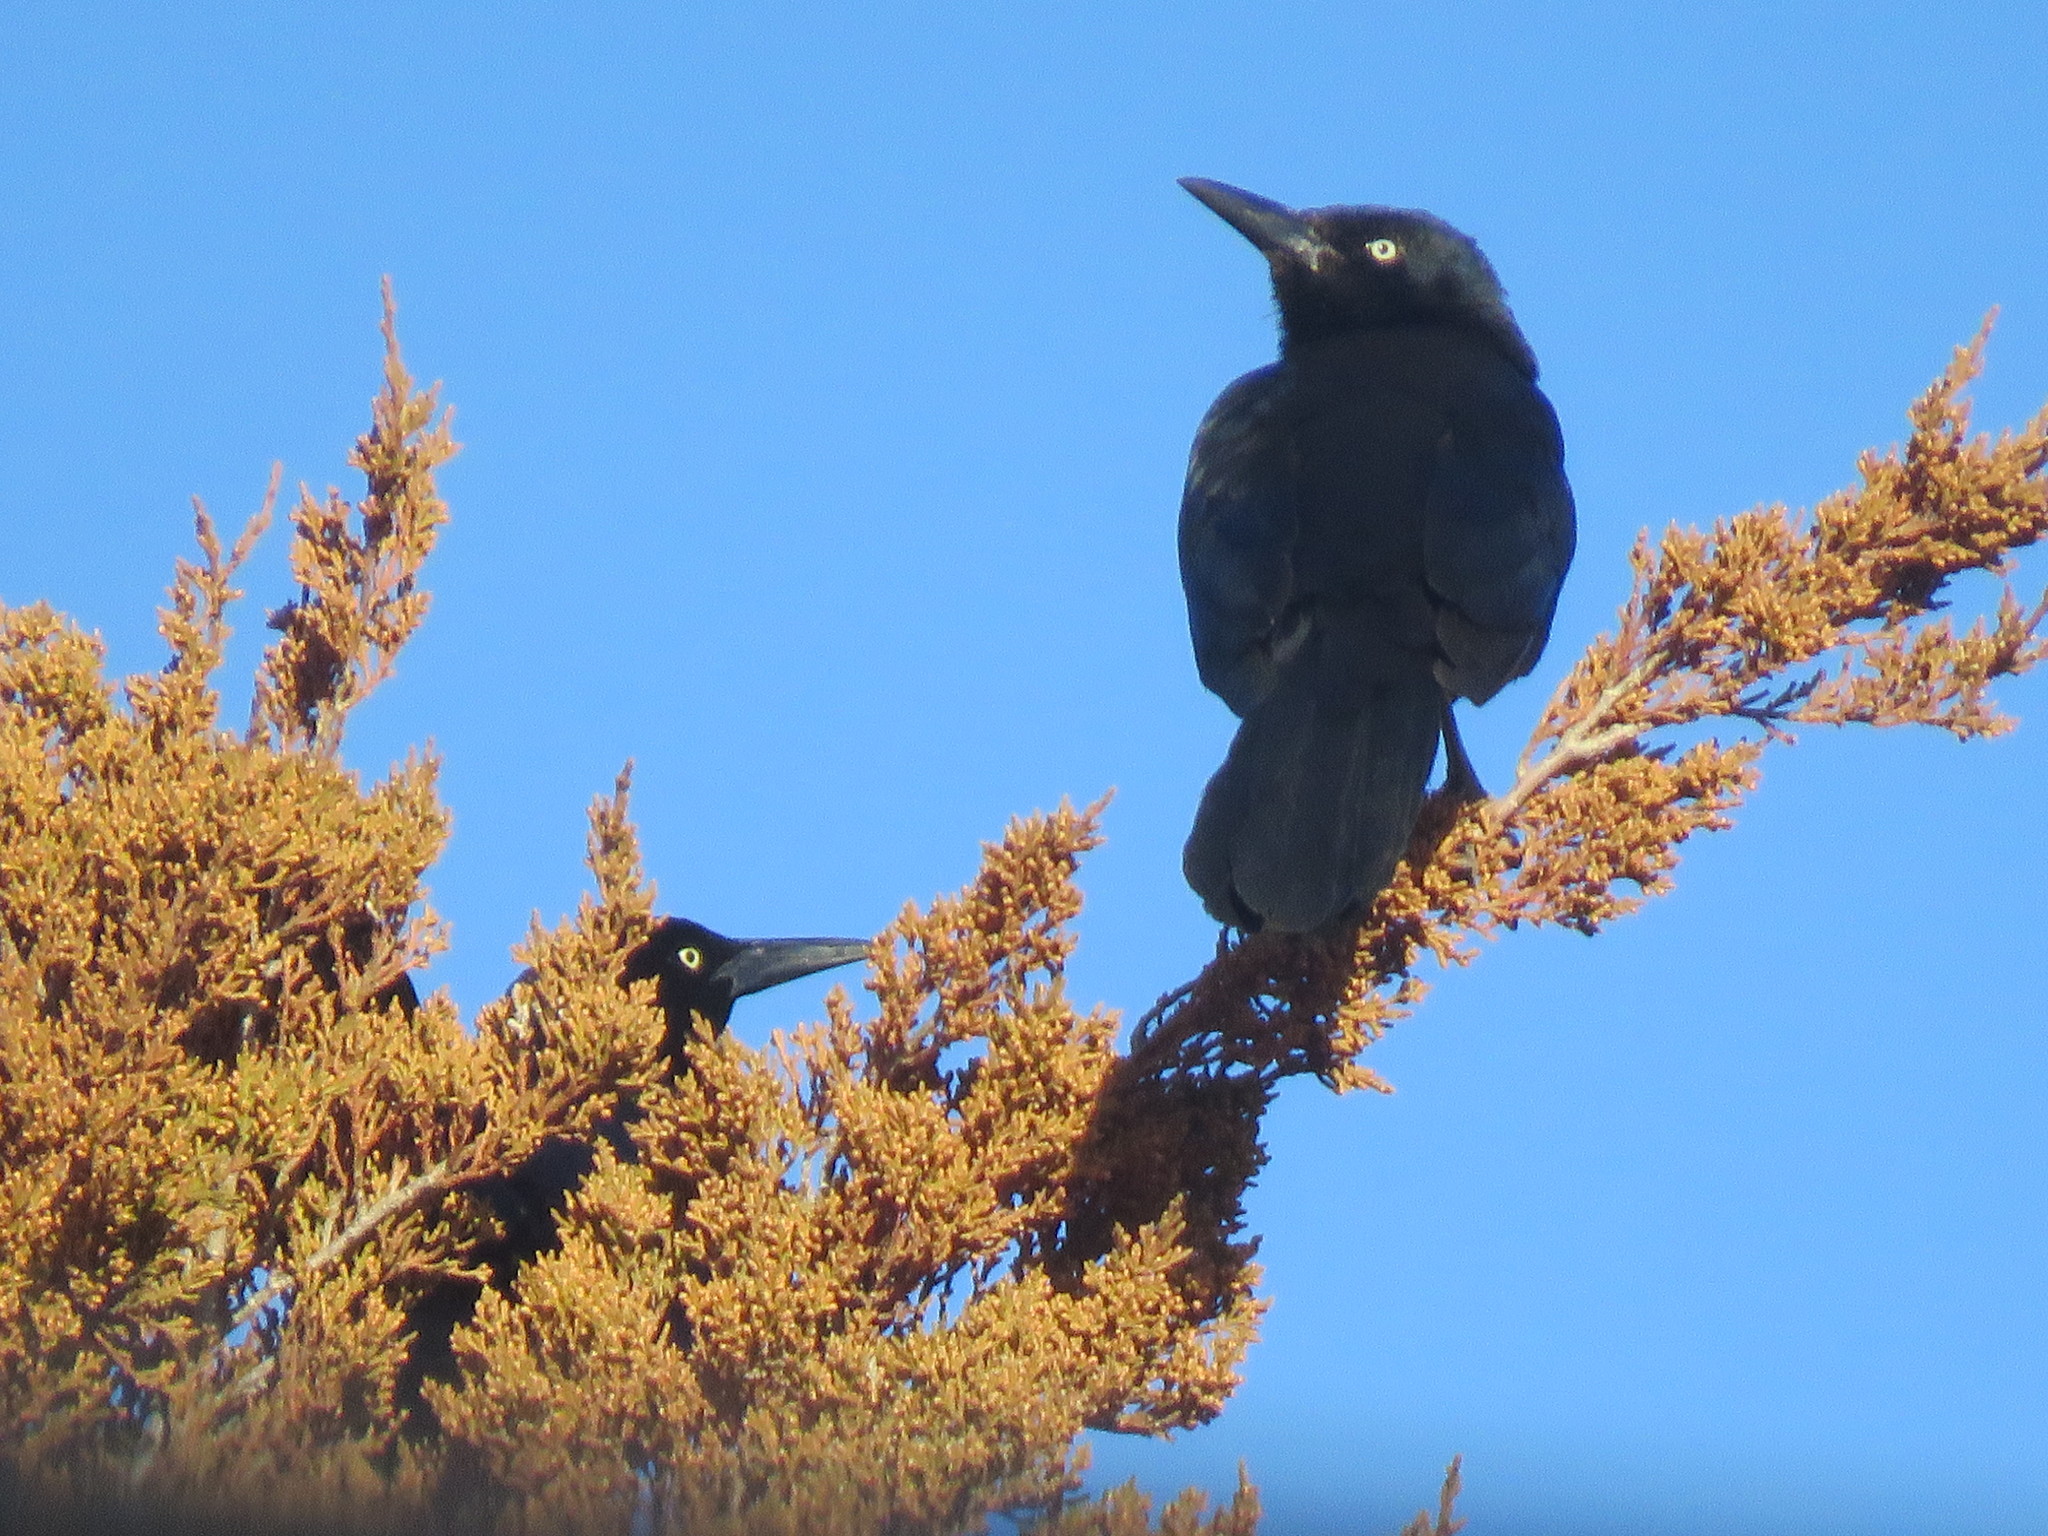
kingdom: Animalia
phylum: Chordata
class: Aves
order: Passeriformes
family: Icteridae
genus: Quiscalus
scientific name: Quiscalus mexicanus
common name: Great-tailed grackle
